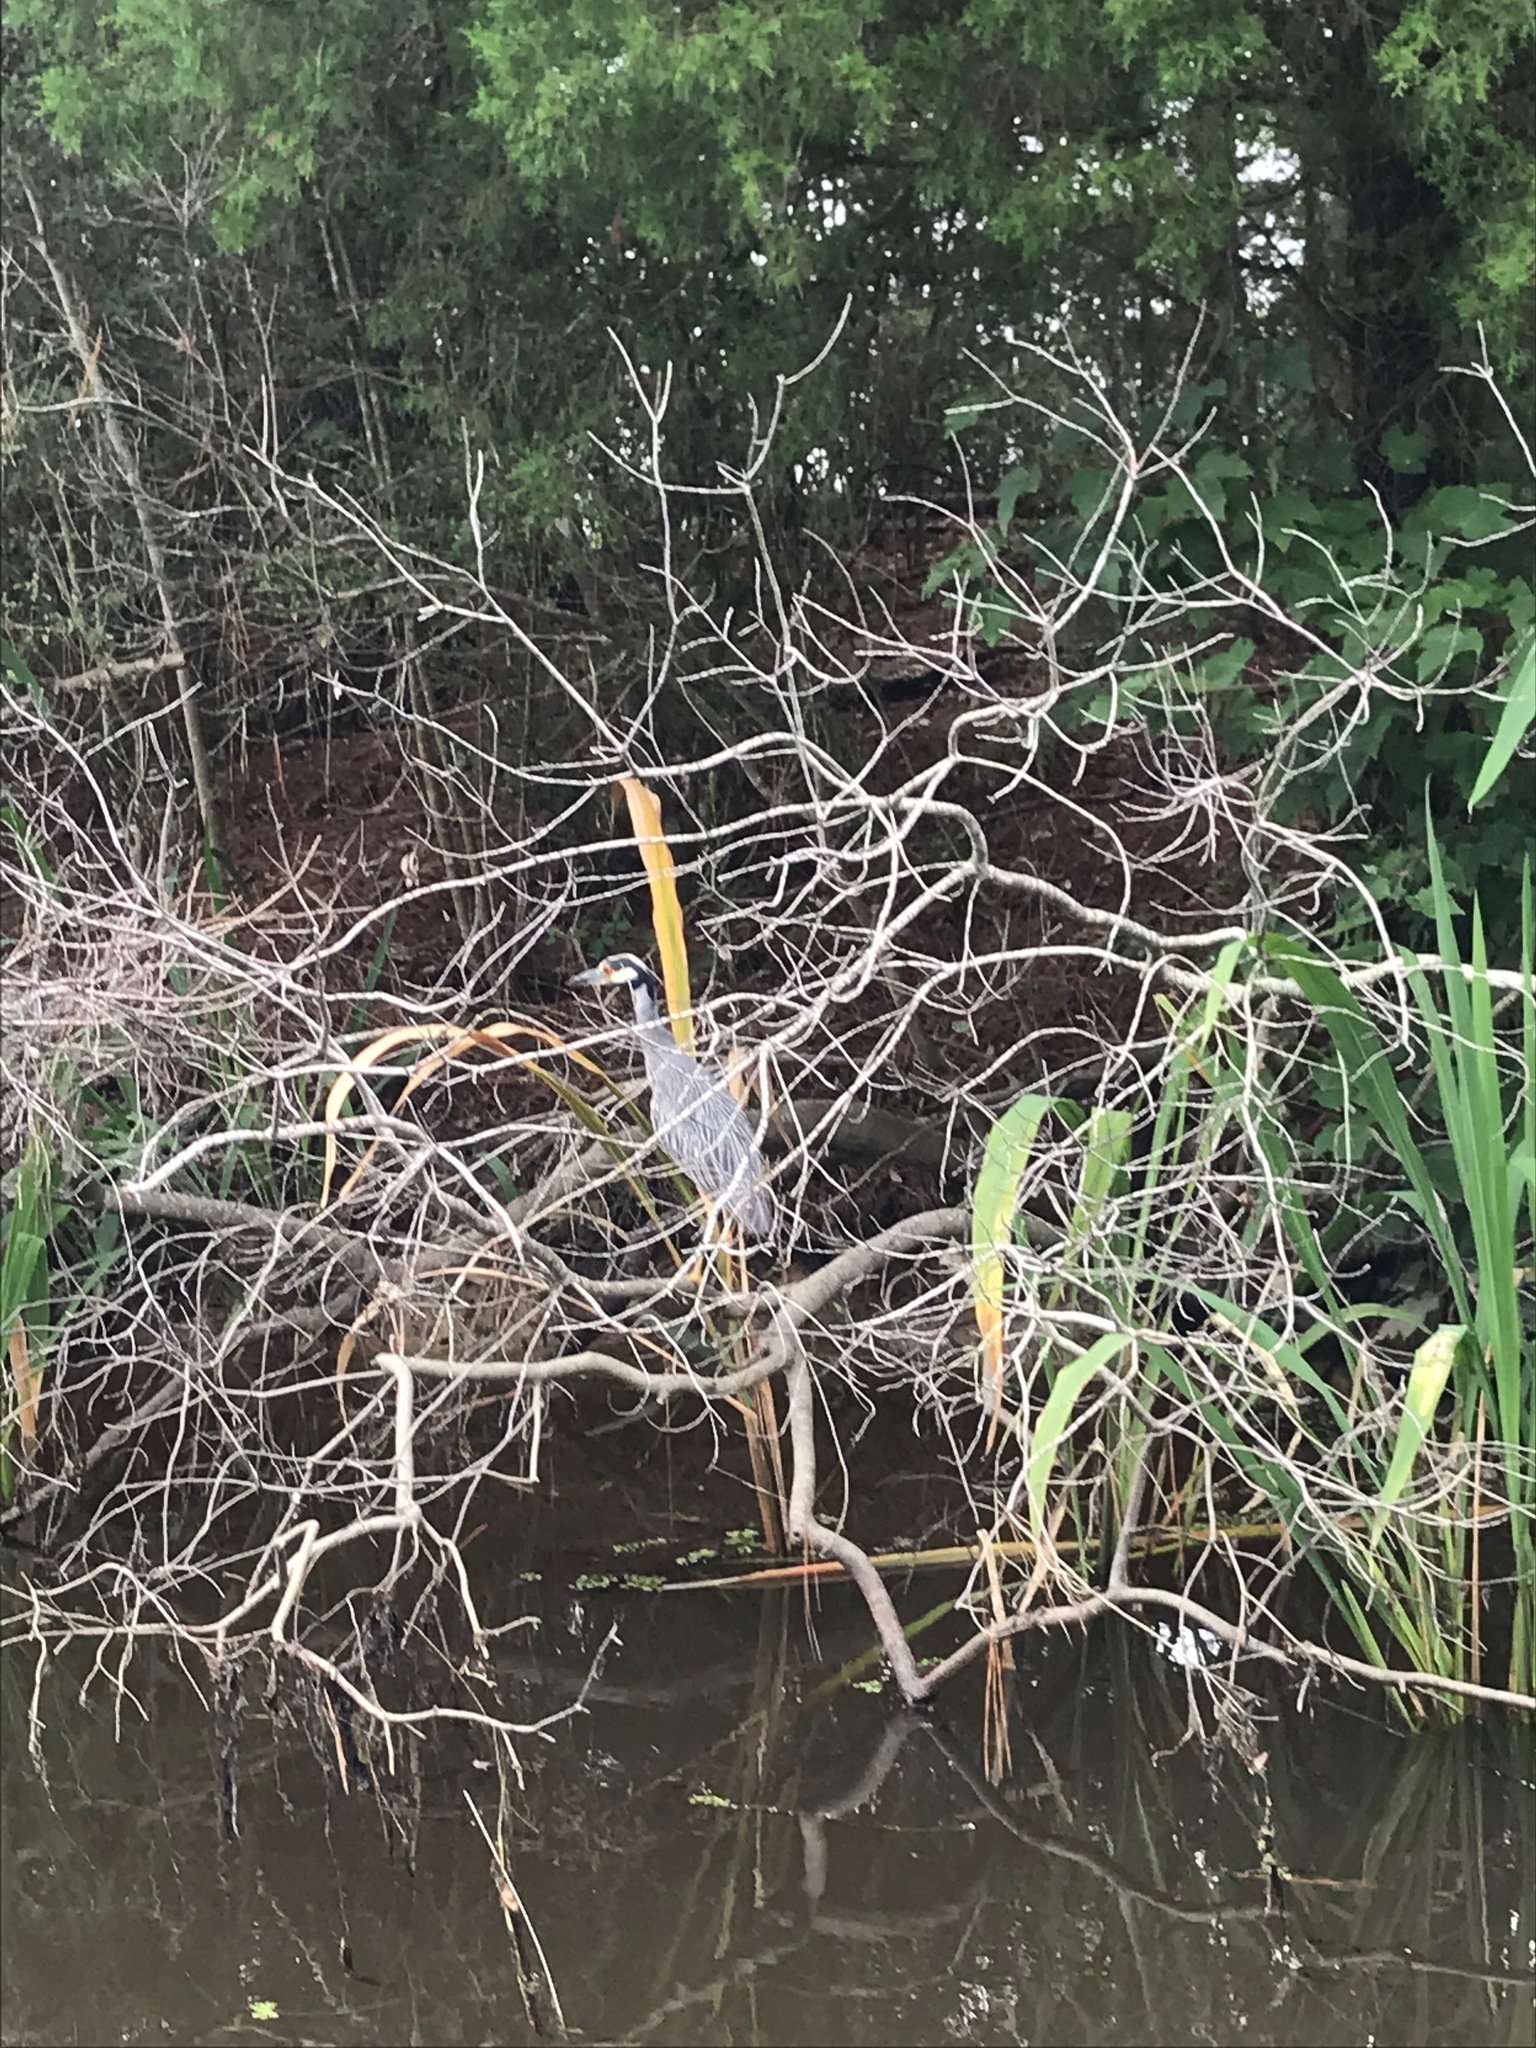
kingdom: Animalia
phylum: Chordata
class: Aves
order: Pelecaniformes
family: Ardeidae
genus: Nyctanassa
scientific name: Nyctanassa violacea
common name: Yellow-crowned night heron
